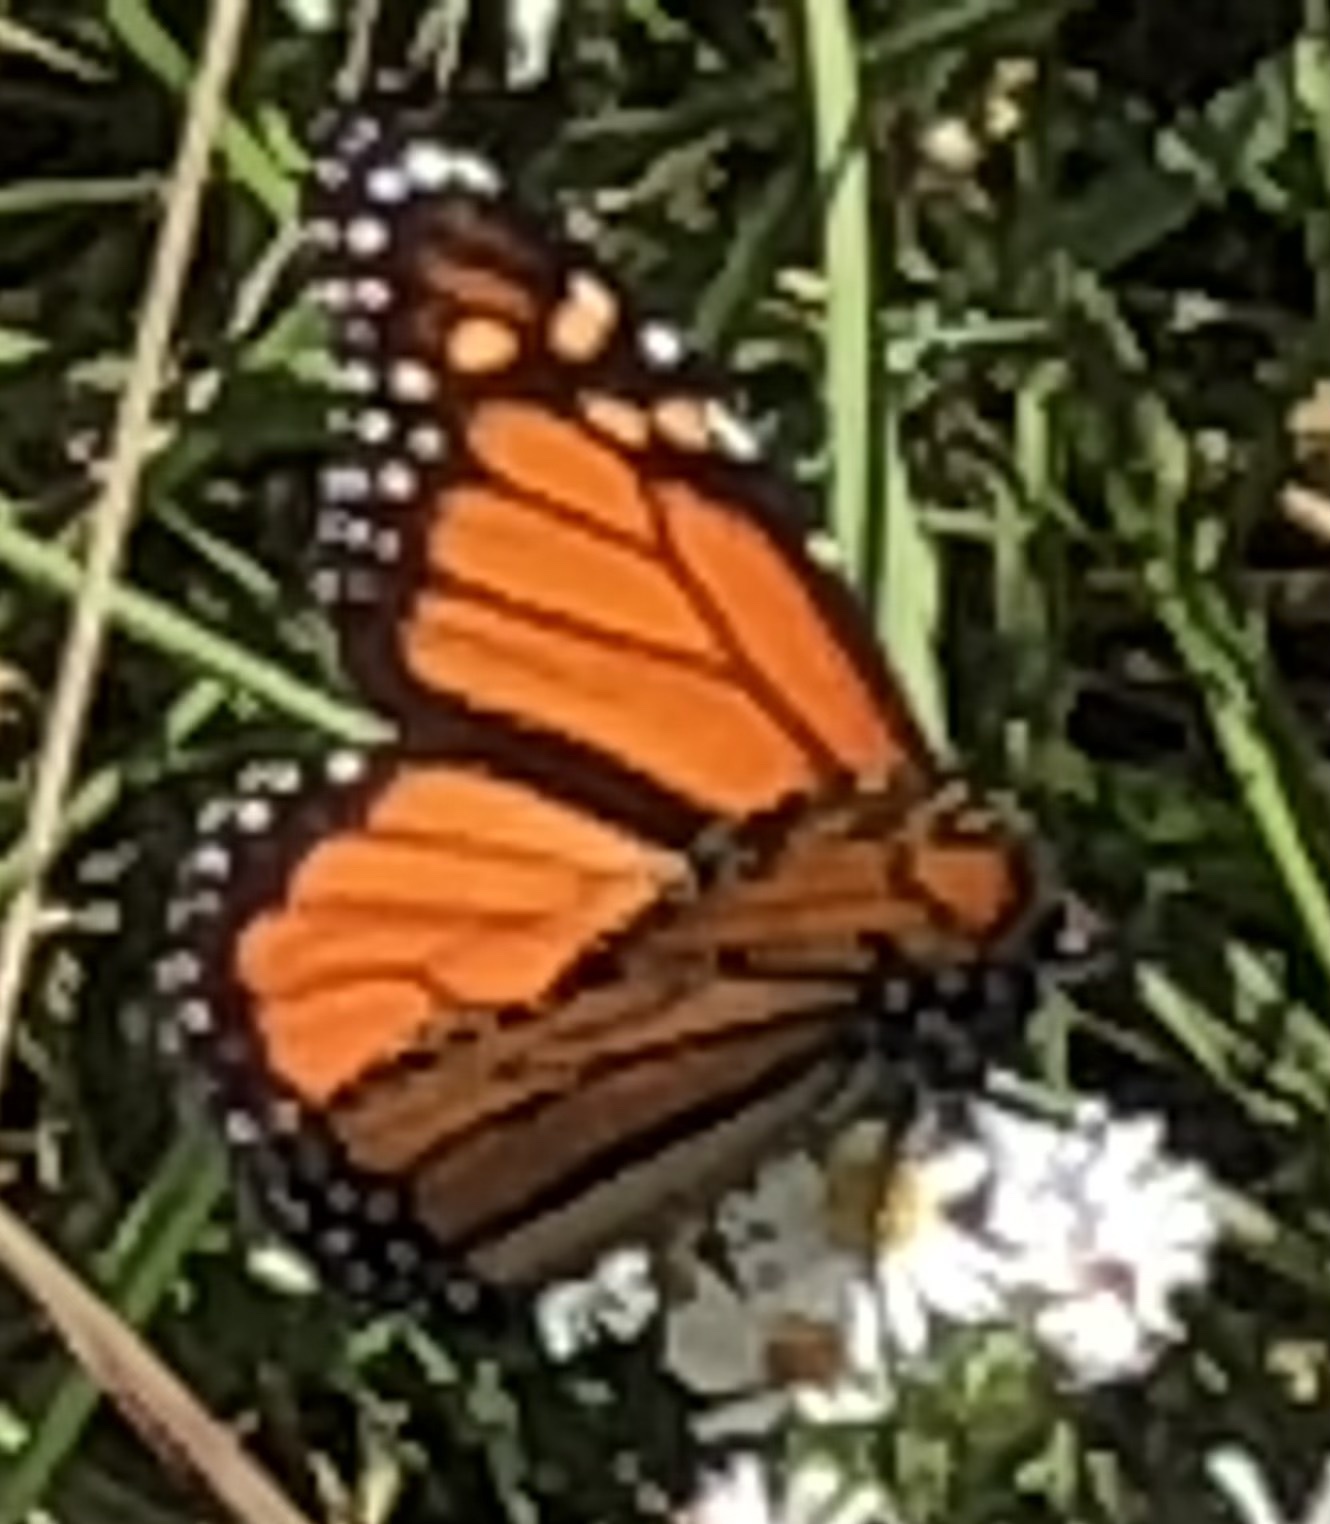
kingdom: Animalia
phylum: Arthropoda
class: Insecta
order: Lepidoptera
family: Nymphalidae
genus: Danaus
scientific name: Danaus plexippus
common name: Monarch
